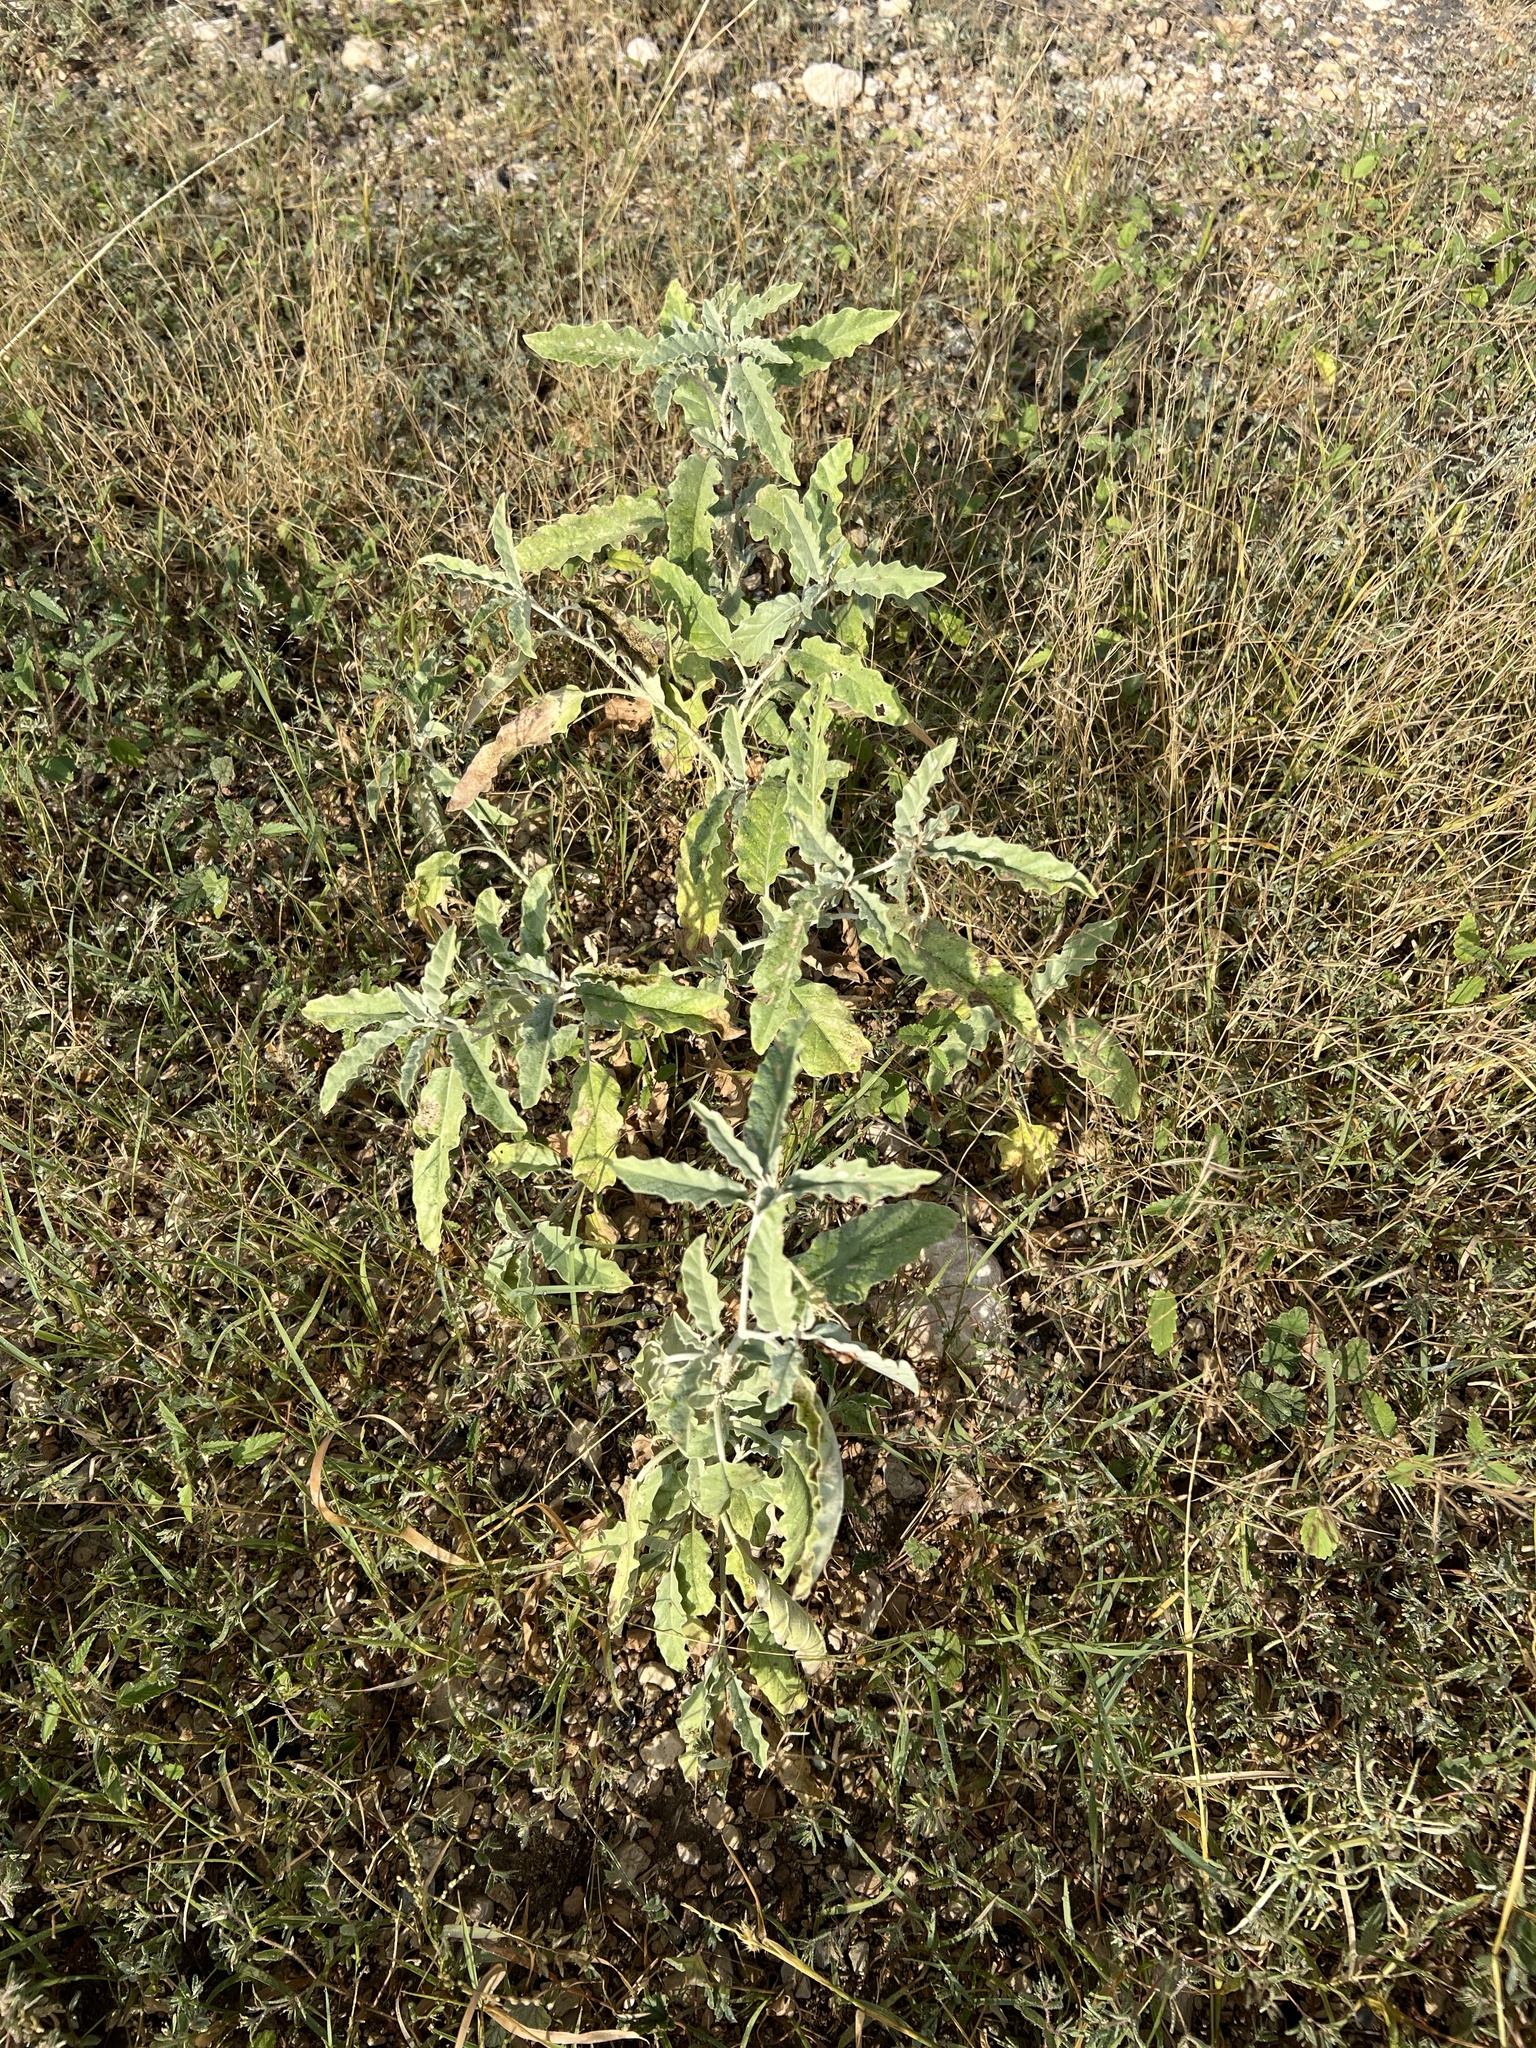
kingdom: Plantae
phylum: Tracheophyta
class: Magnoliopsida
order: Solanales
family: Solanaceae
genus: Solanum
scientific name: Solanum elaeagnifolium
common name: Silverleaf nightshade
